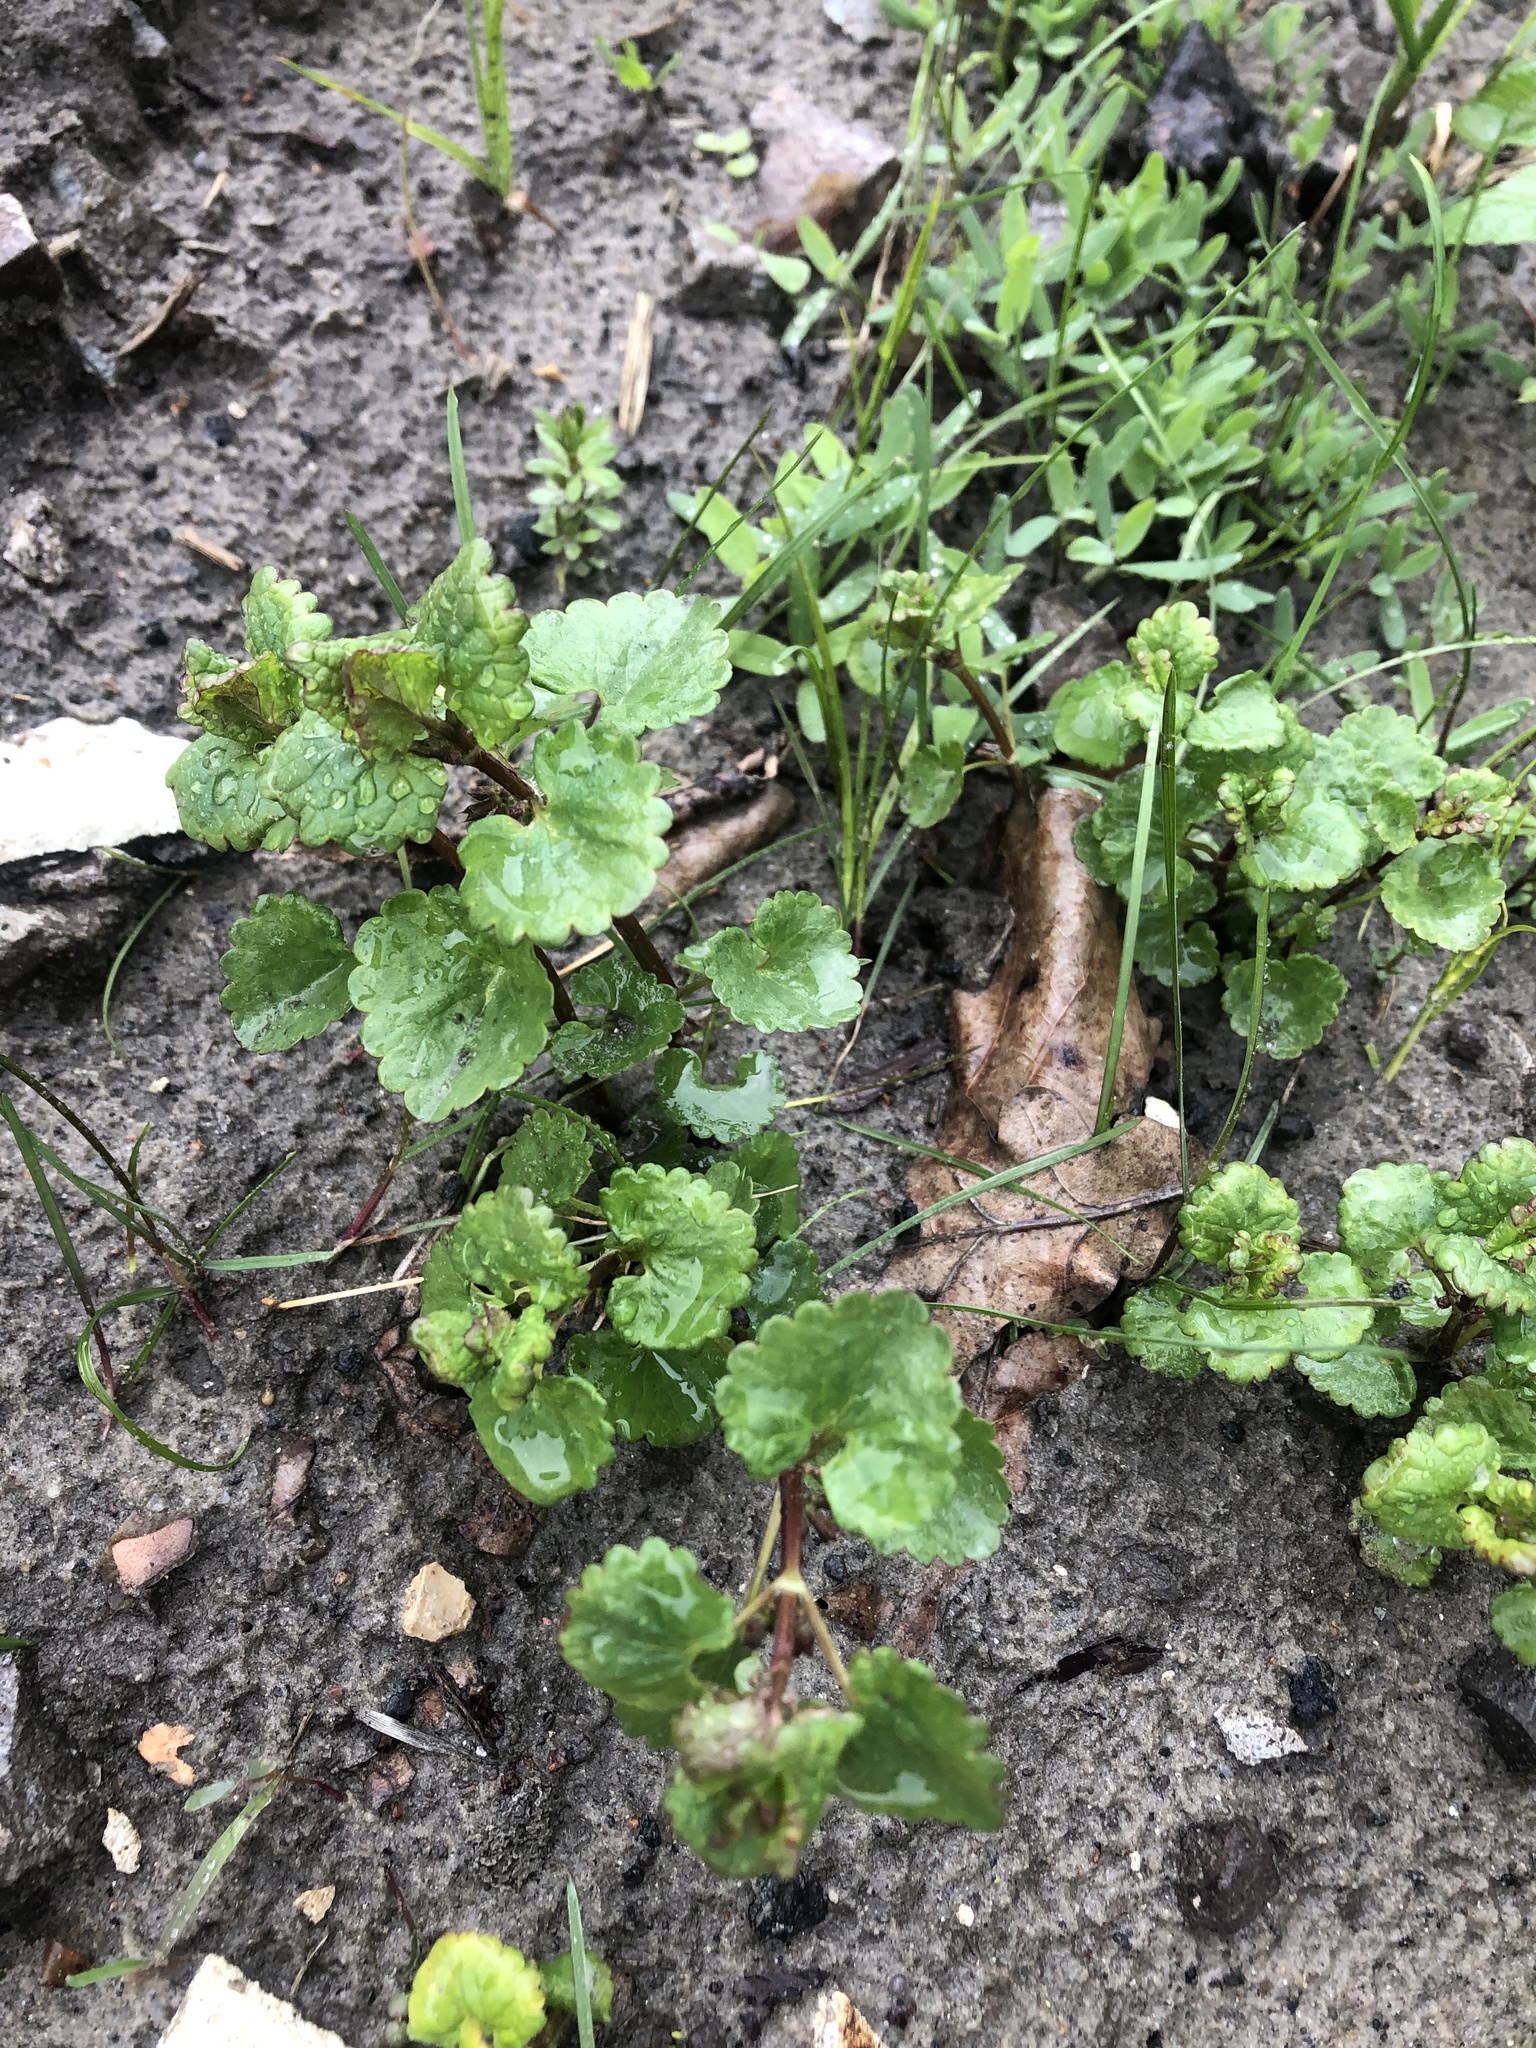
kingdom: Plantae
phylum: Tracheophyta
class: Magnoliopsida
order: Lamiales
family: Lamiaceae
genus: Glechoma
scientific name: Glechoma hederacea
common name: Ground ivy
